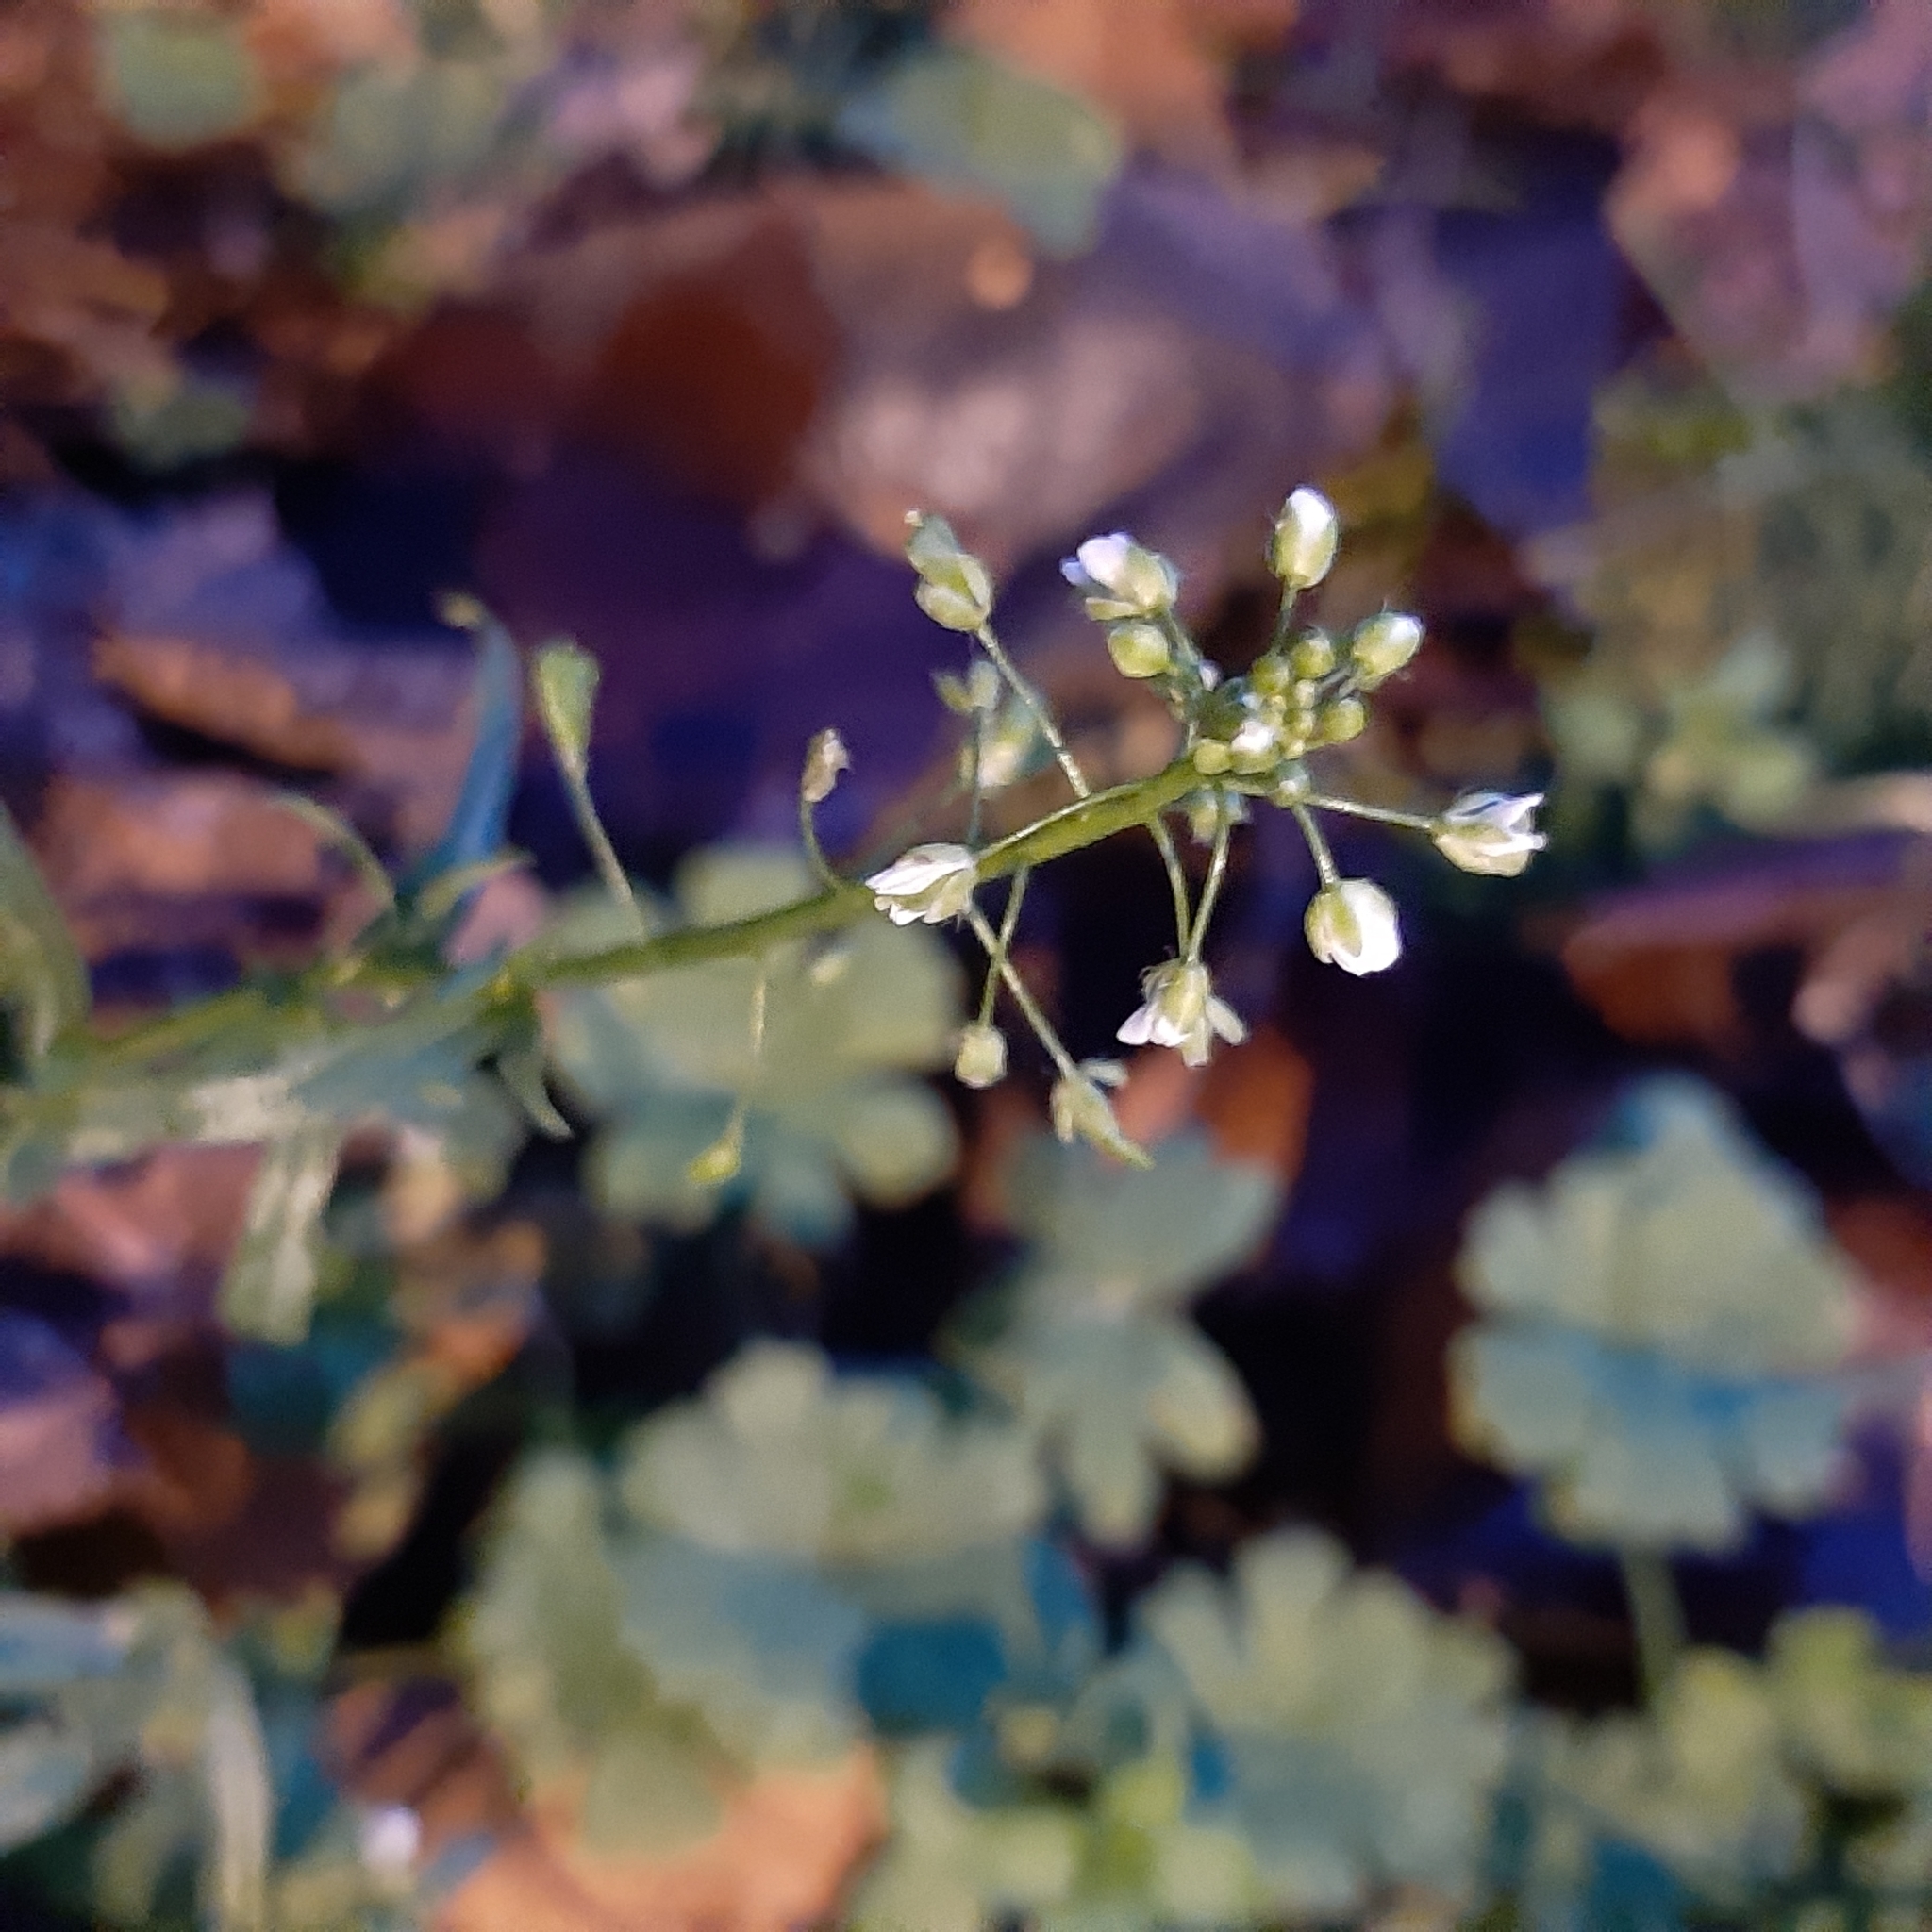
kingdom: Plantae
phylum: Tracheophyta
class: Magnoliopsida
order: Brassicales
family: Brassicaceae
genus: Capsella
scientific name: Capsella bursa-pastoris
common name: Shepherd's purse
